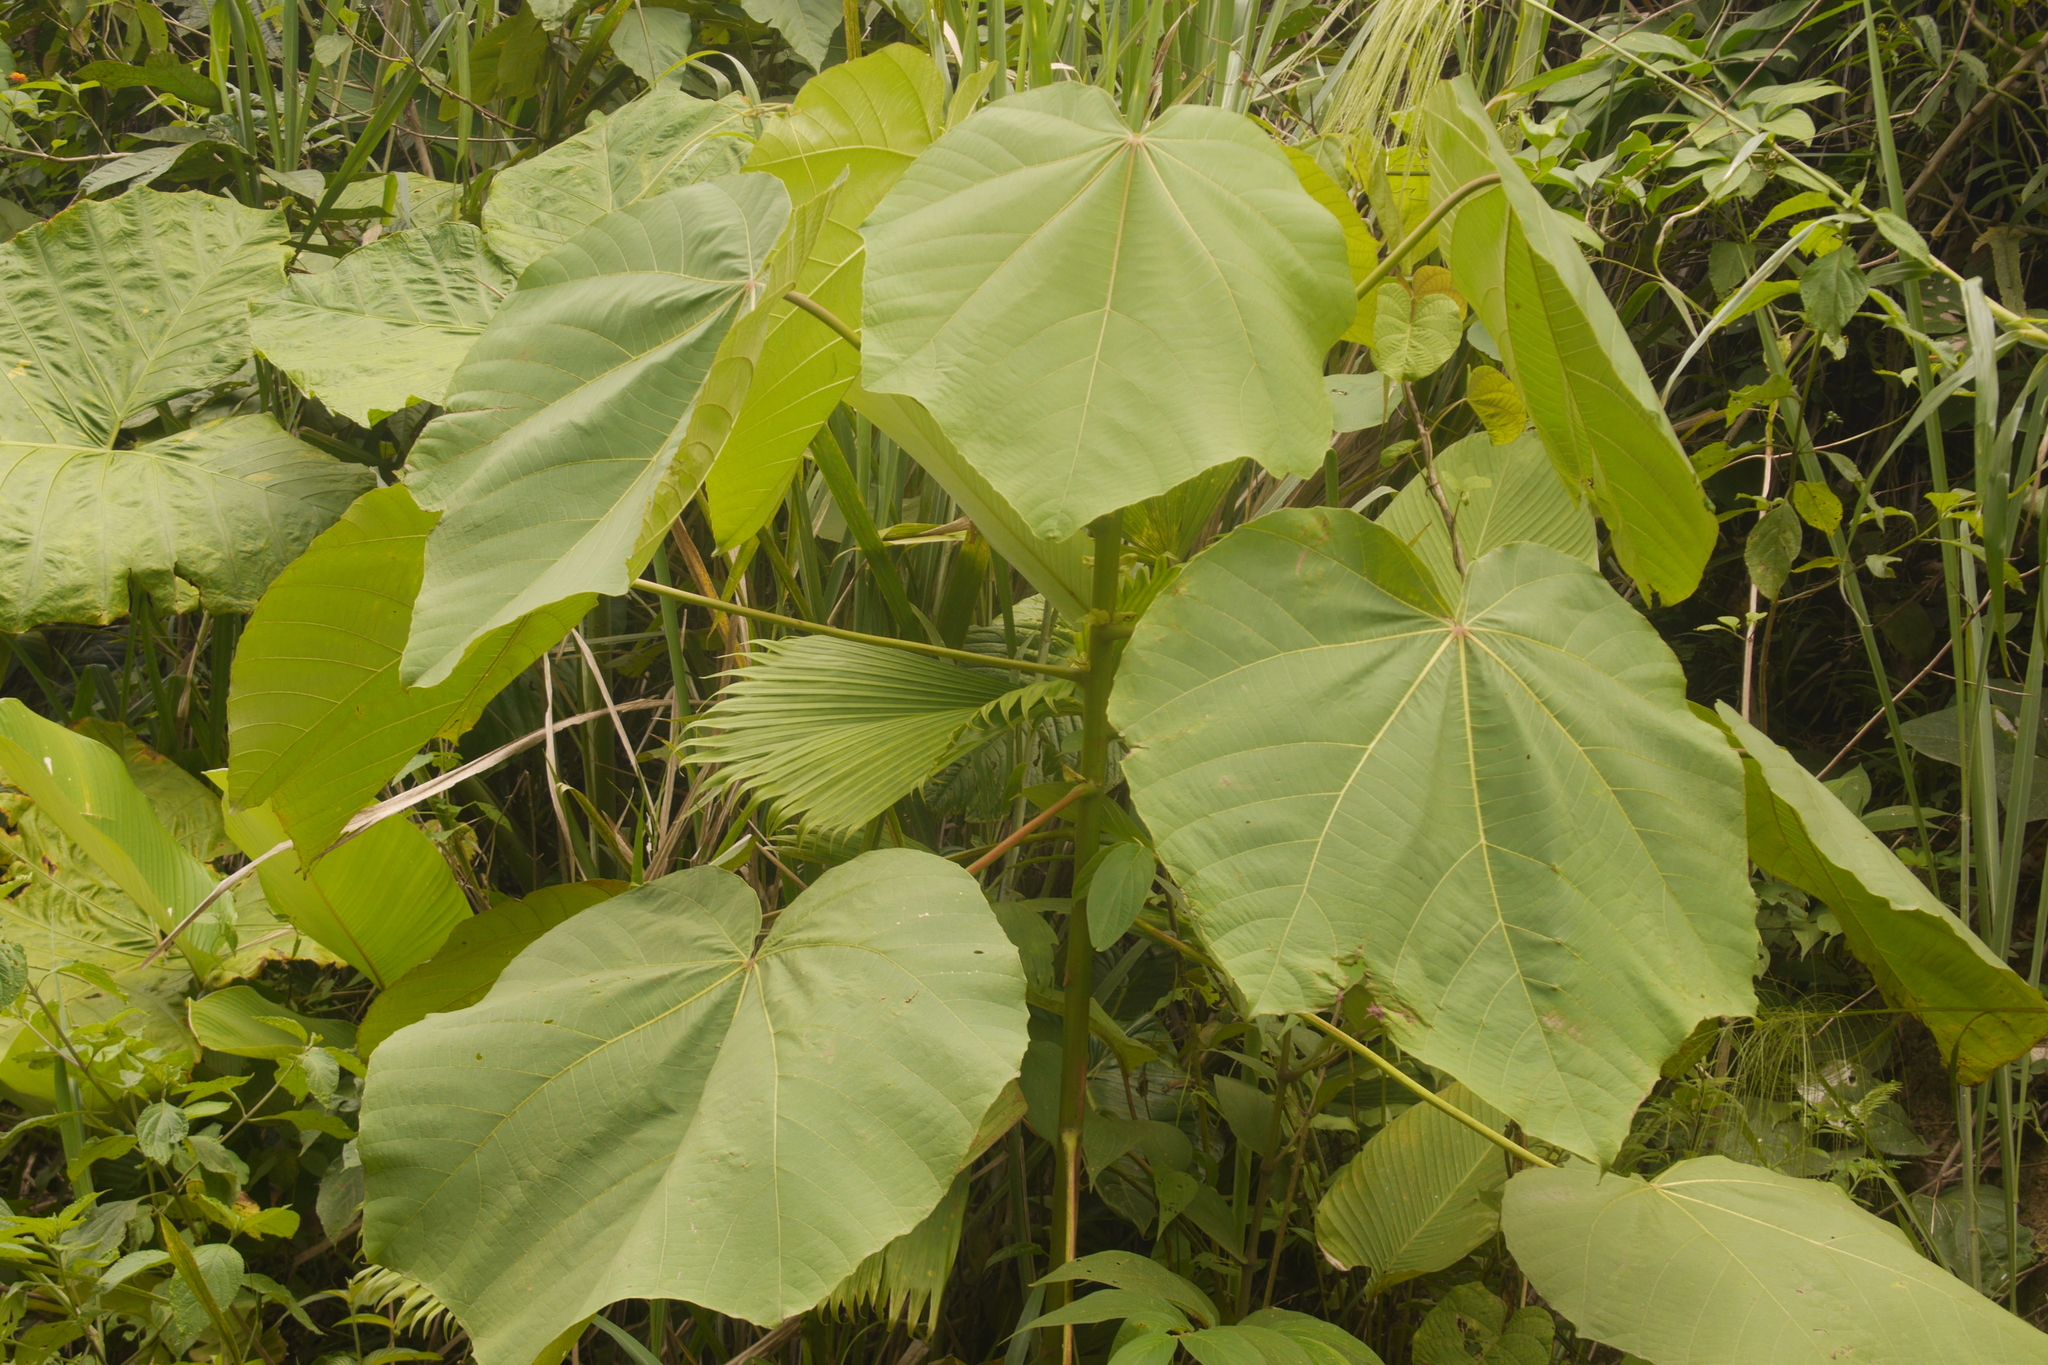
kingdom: Plantae
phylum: Tracheophyta
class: Magnoliopsida
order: Malvales
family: Malvaceae
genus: Ochroma
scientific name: Ochroma pyramidale
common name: Balsa
